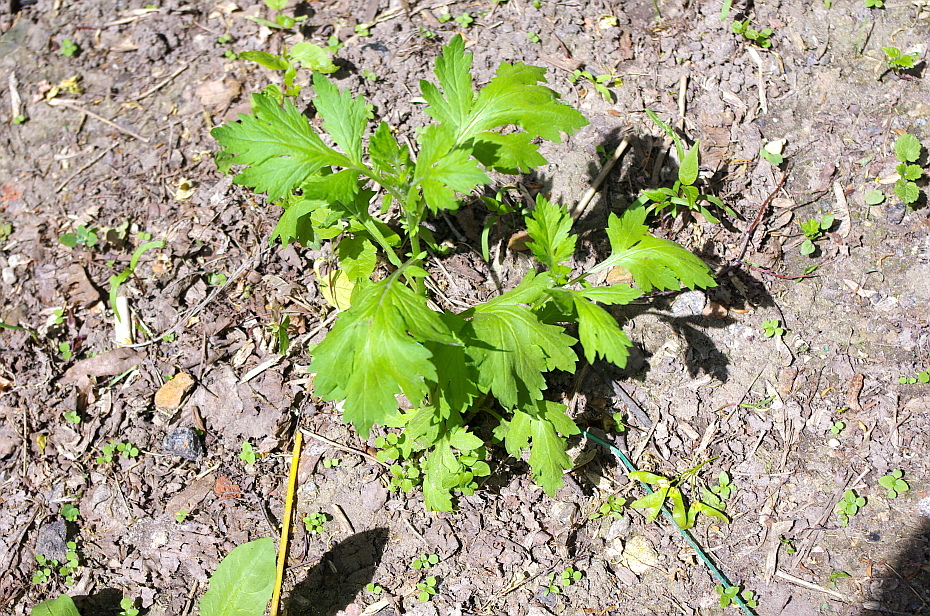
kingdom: Plantae
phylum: Tracheophyta
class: Magnoliopsida
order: Asterales
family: Asteraceae
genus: Artemisia
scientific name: Artemisia vulgaris
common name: Mugwort
